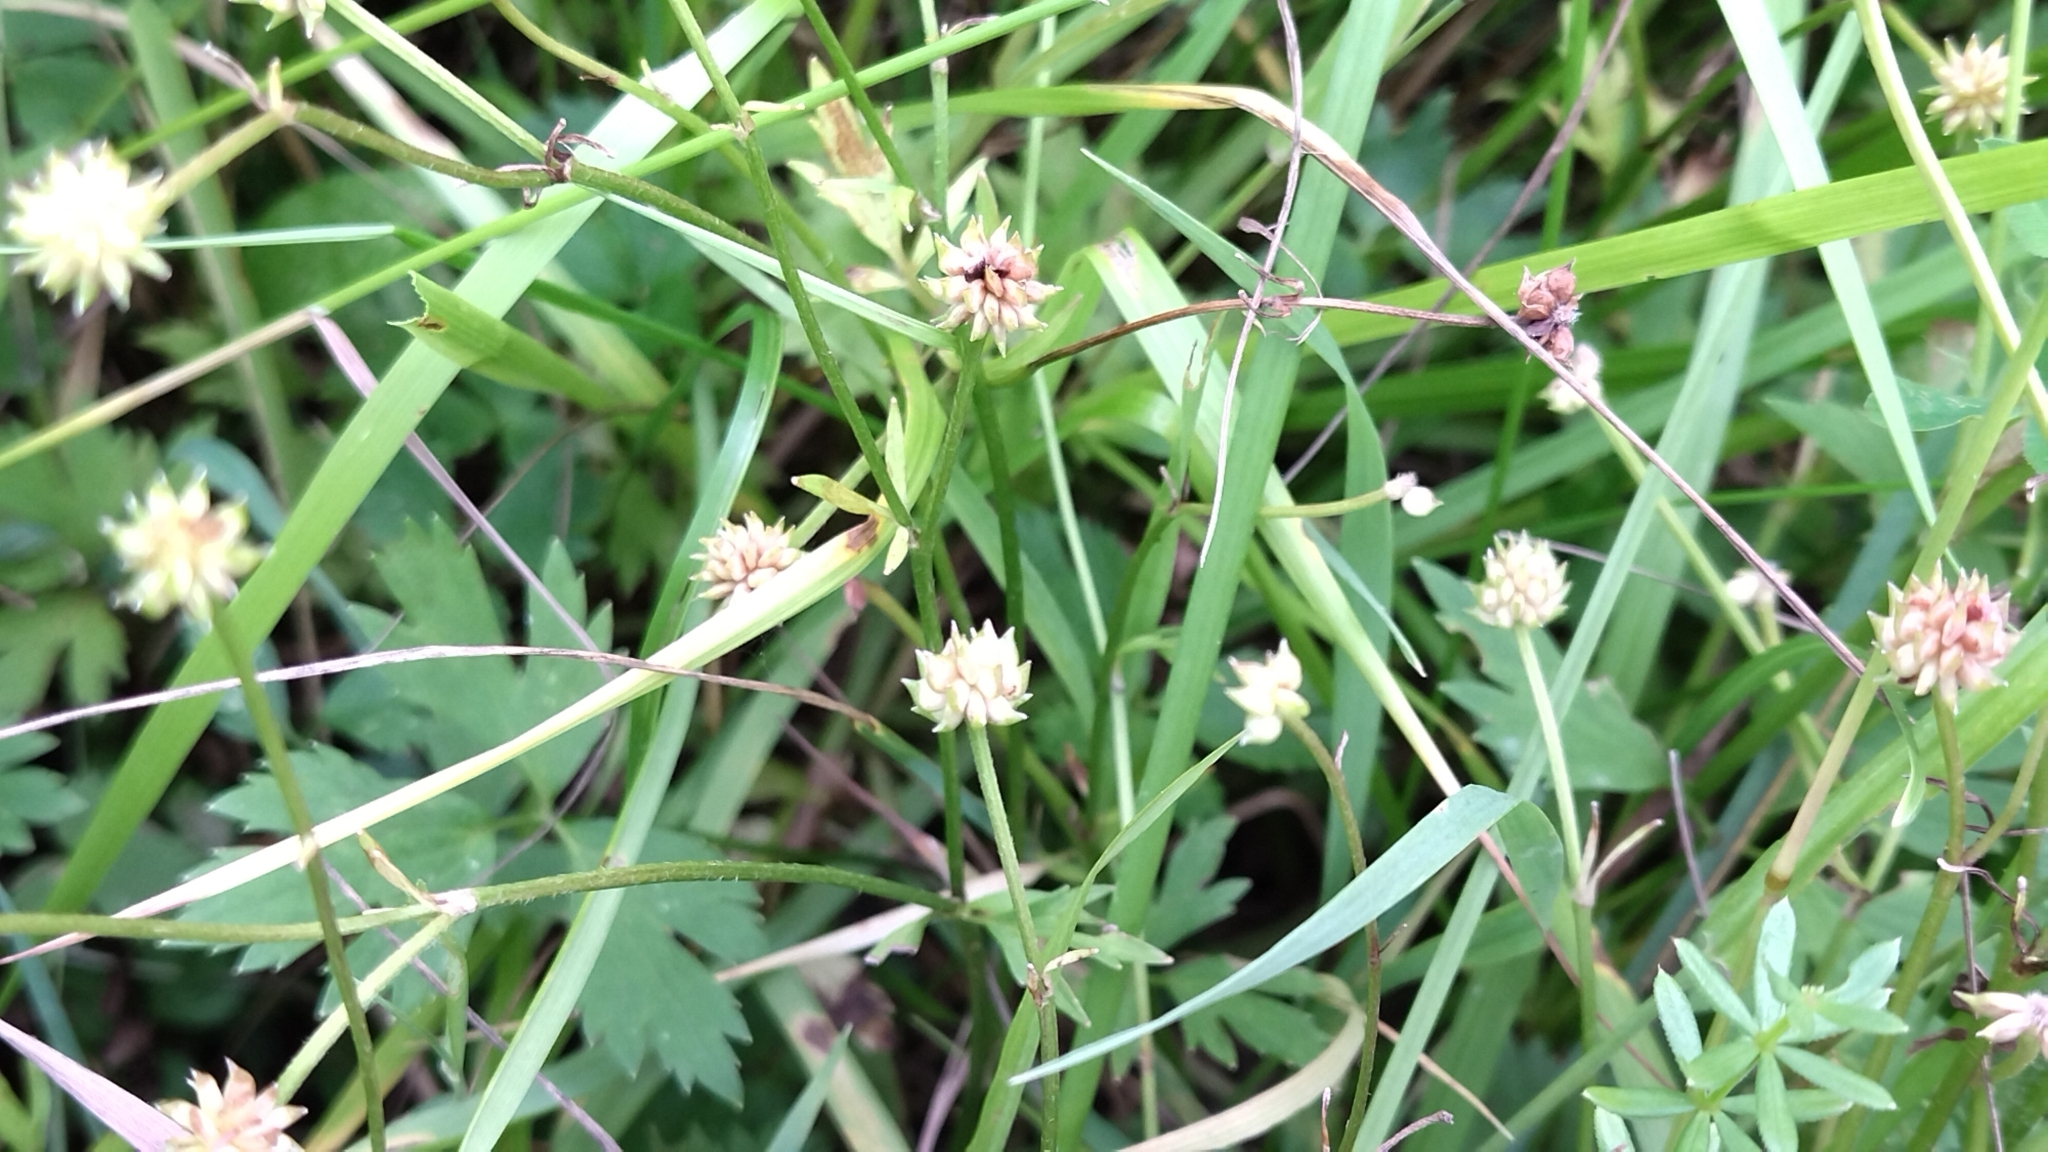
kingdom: Plantae
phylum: Tracheophyta
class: Magnoliopsida
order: Ranunculales
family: Ranunculaceae
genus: Ranunculus
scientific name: Ranunculus repens
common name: Creeping buttercup
